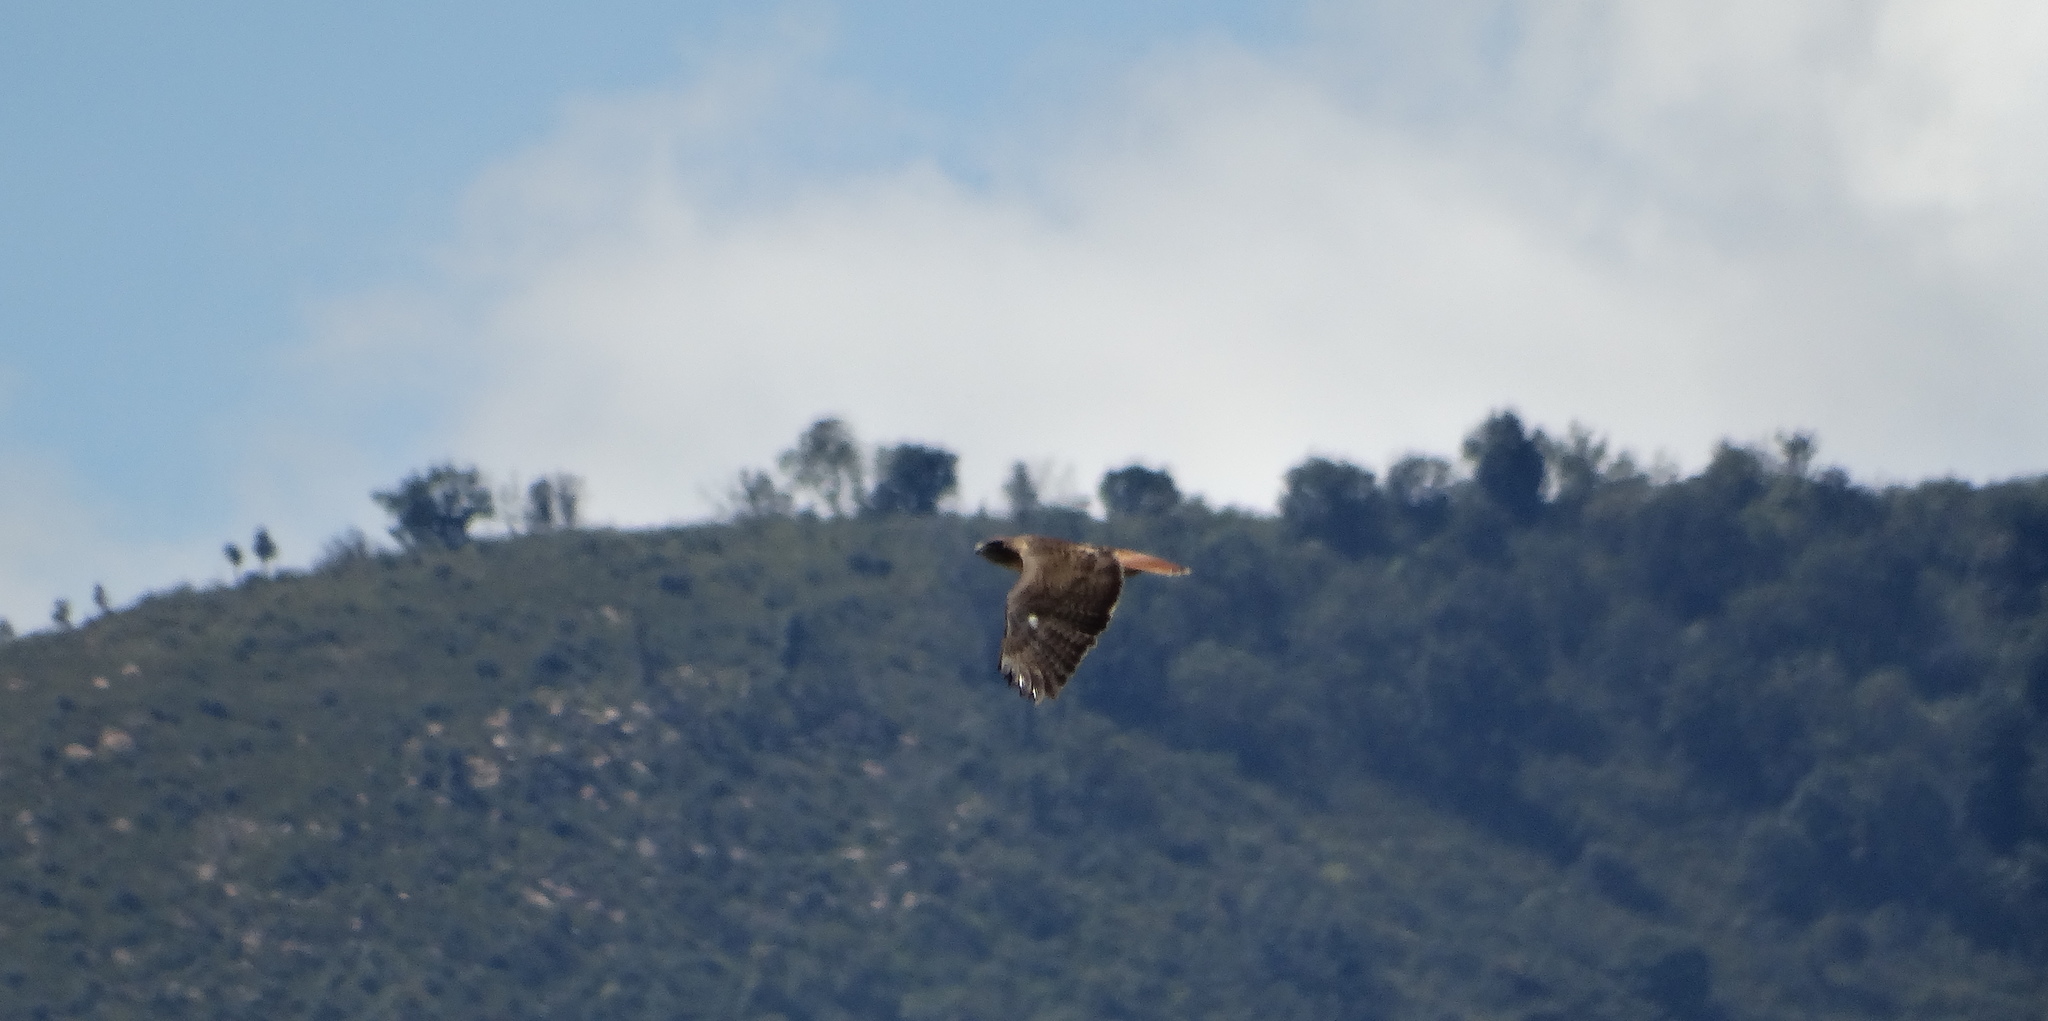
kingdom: Animalia
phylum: Chordata
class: Aves
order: Accipitriformes
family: Accipitridae
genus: Buteo
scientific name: Buteo jamaicensis
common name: Red-tailed hawk
